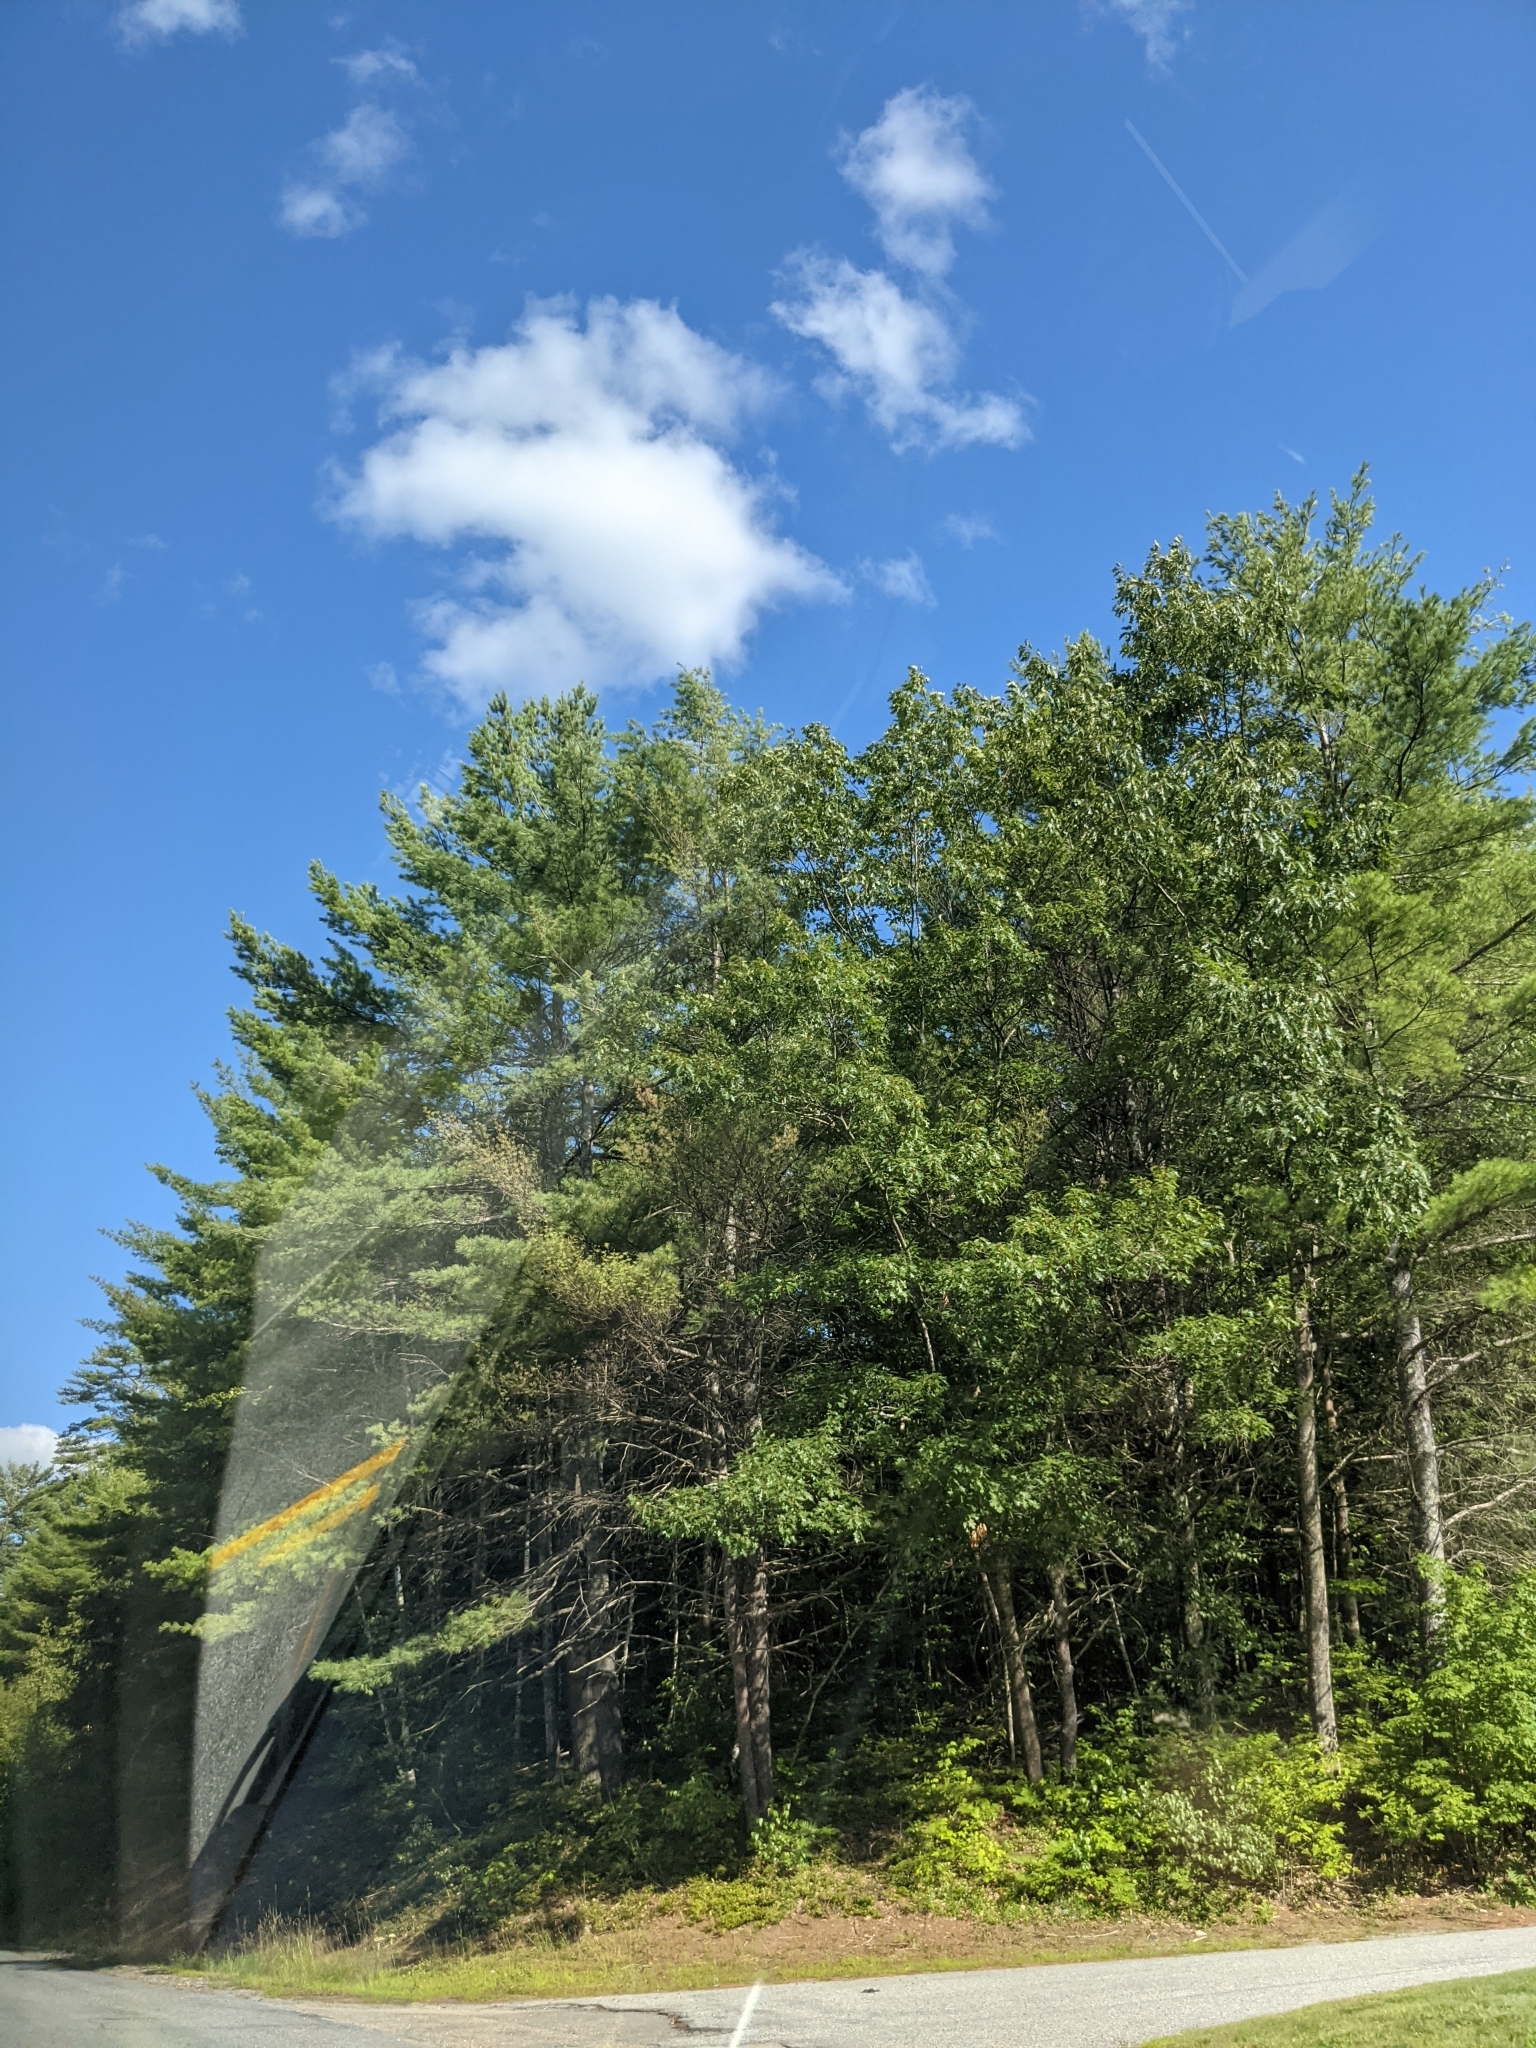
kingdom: Plantae
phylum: Tracheophyta
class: Pinopsida
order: Pinales
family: Pinaceae
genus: Pinus
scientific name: Pinus strobus
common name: Weymouth pine
